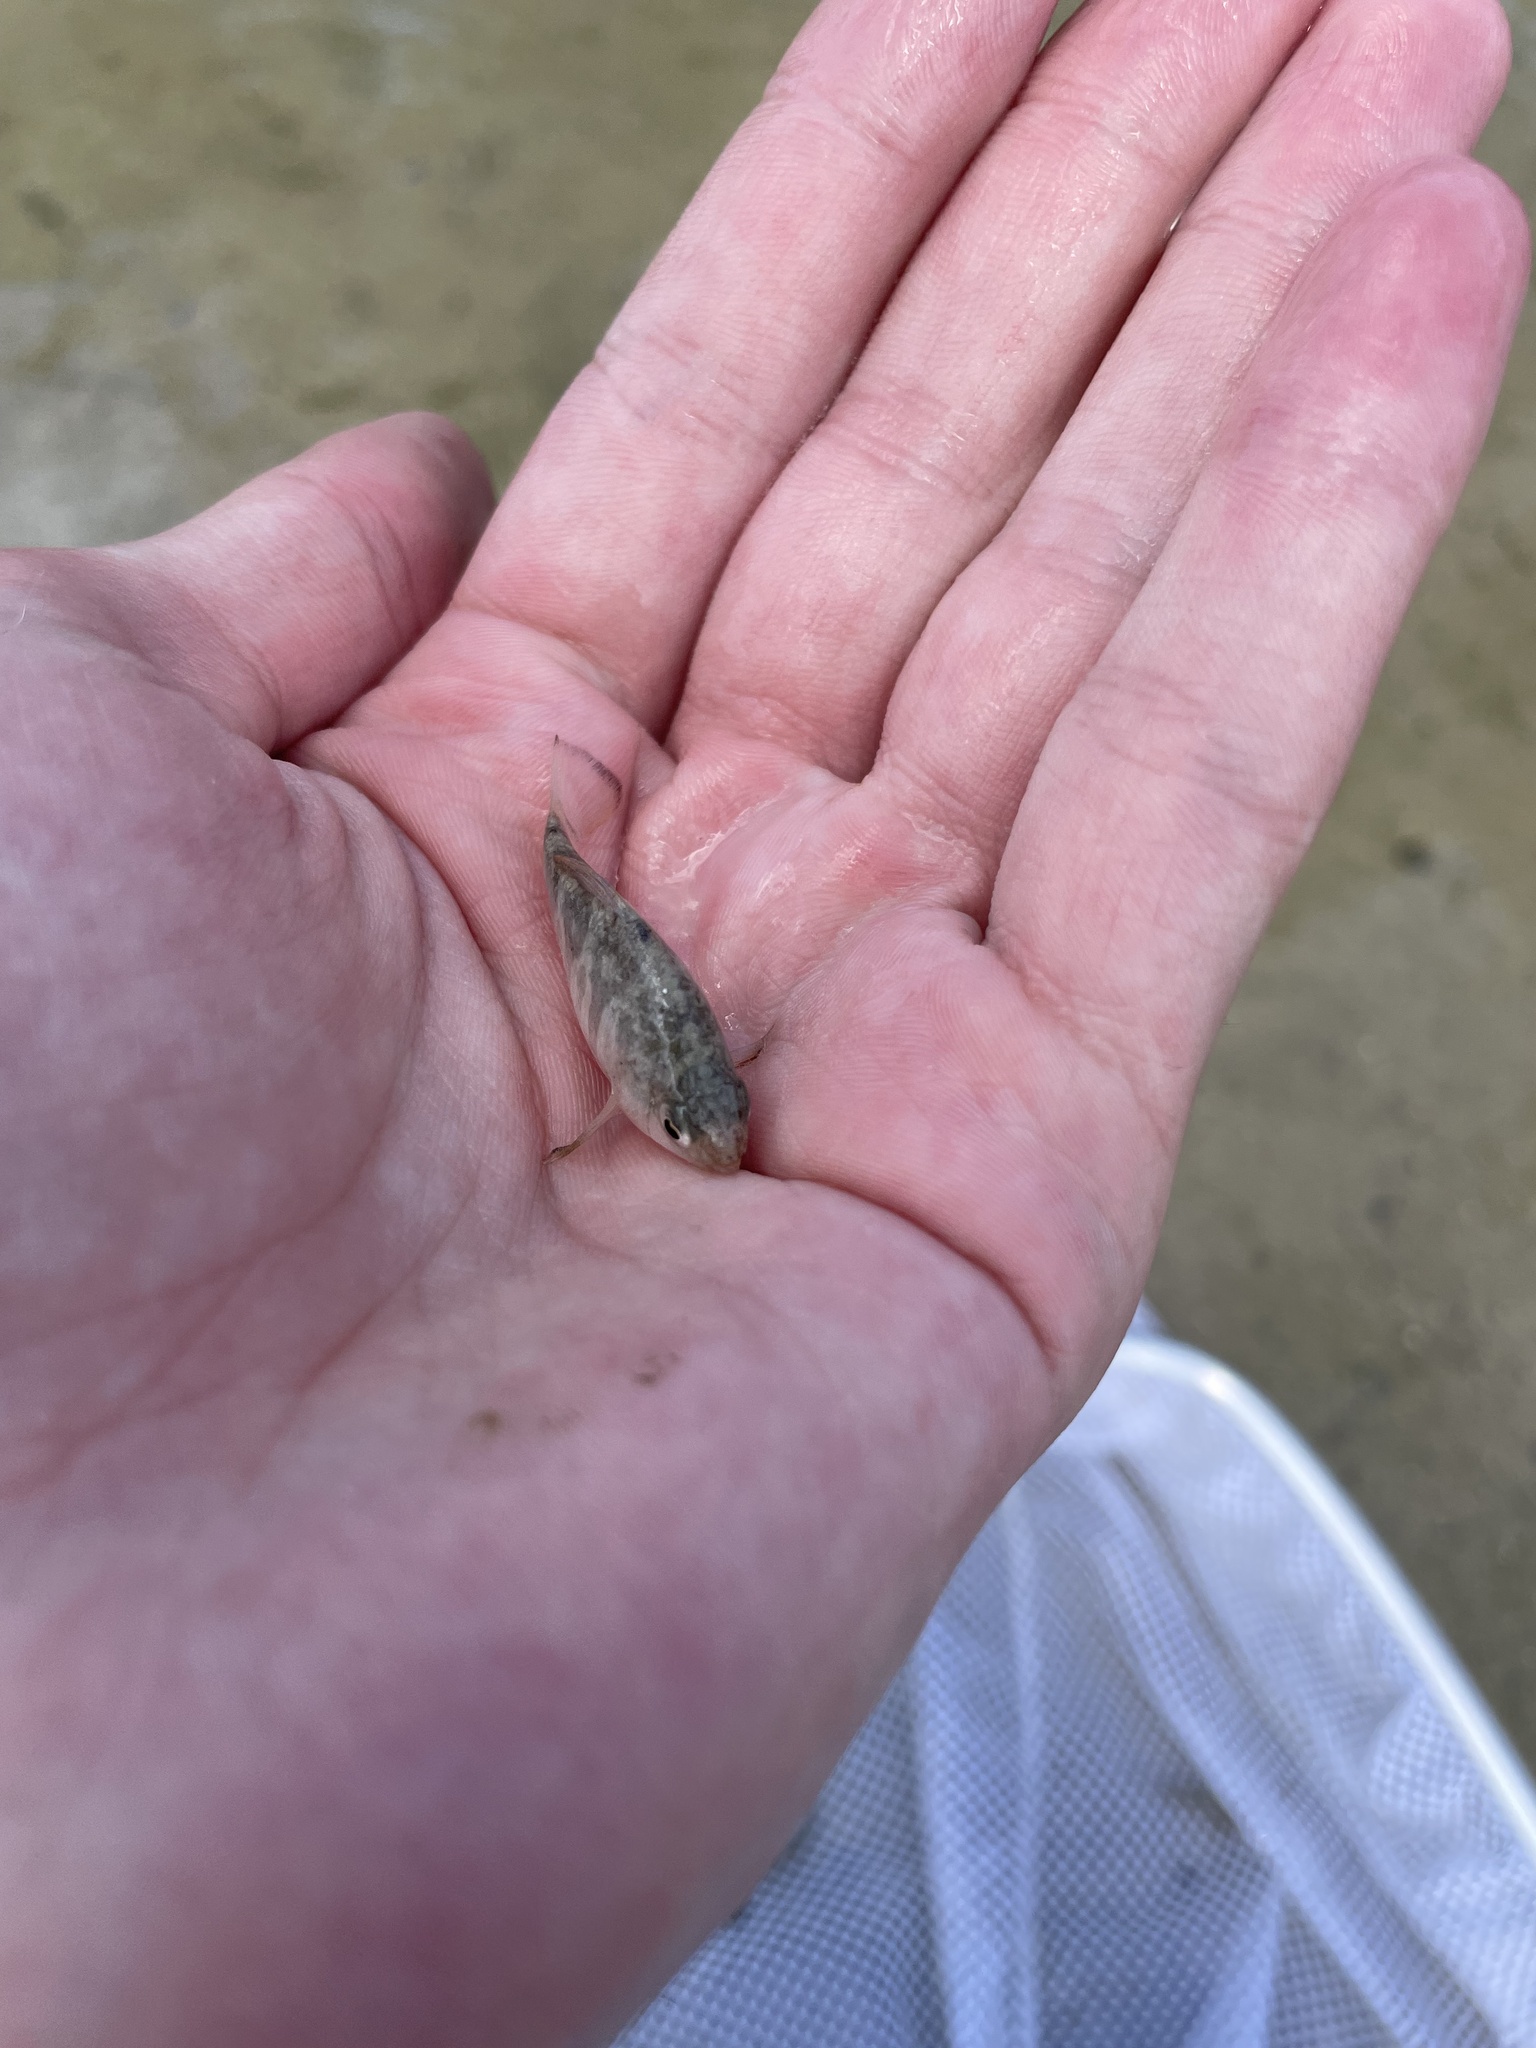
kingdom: Animalia
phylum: Chordata
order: Cyprinodontiformes
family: Cyprinodontidae
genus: Cyprinodon
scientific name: Cyprinodon variegatus
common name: Sheepshead minnow
